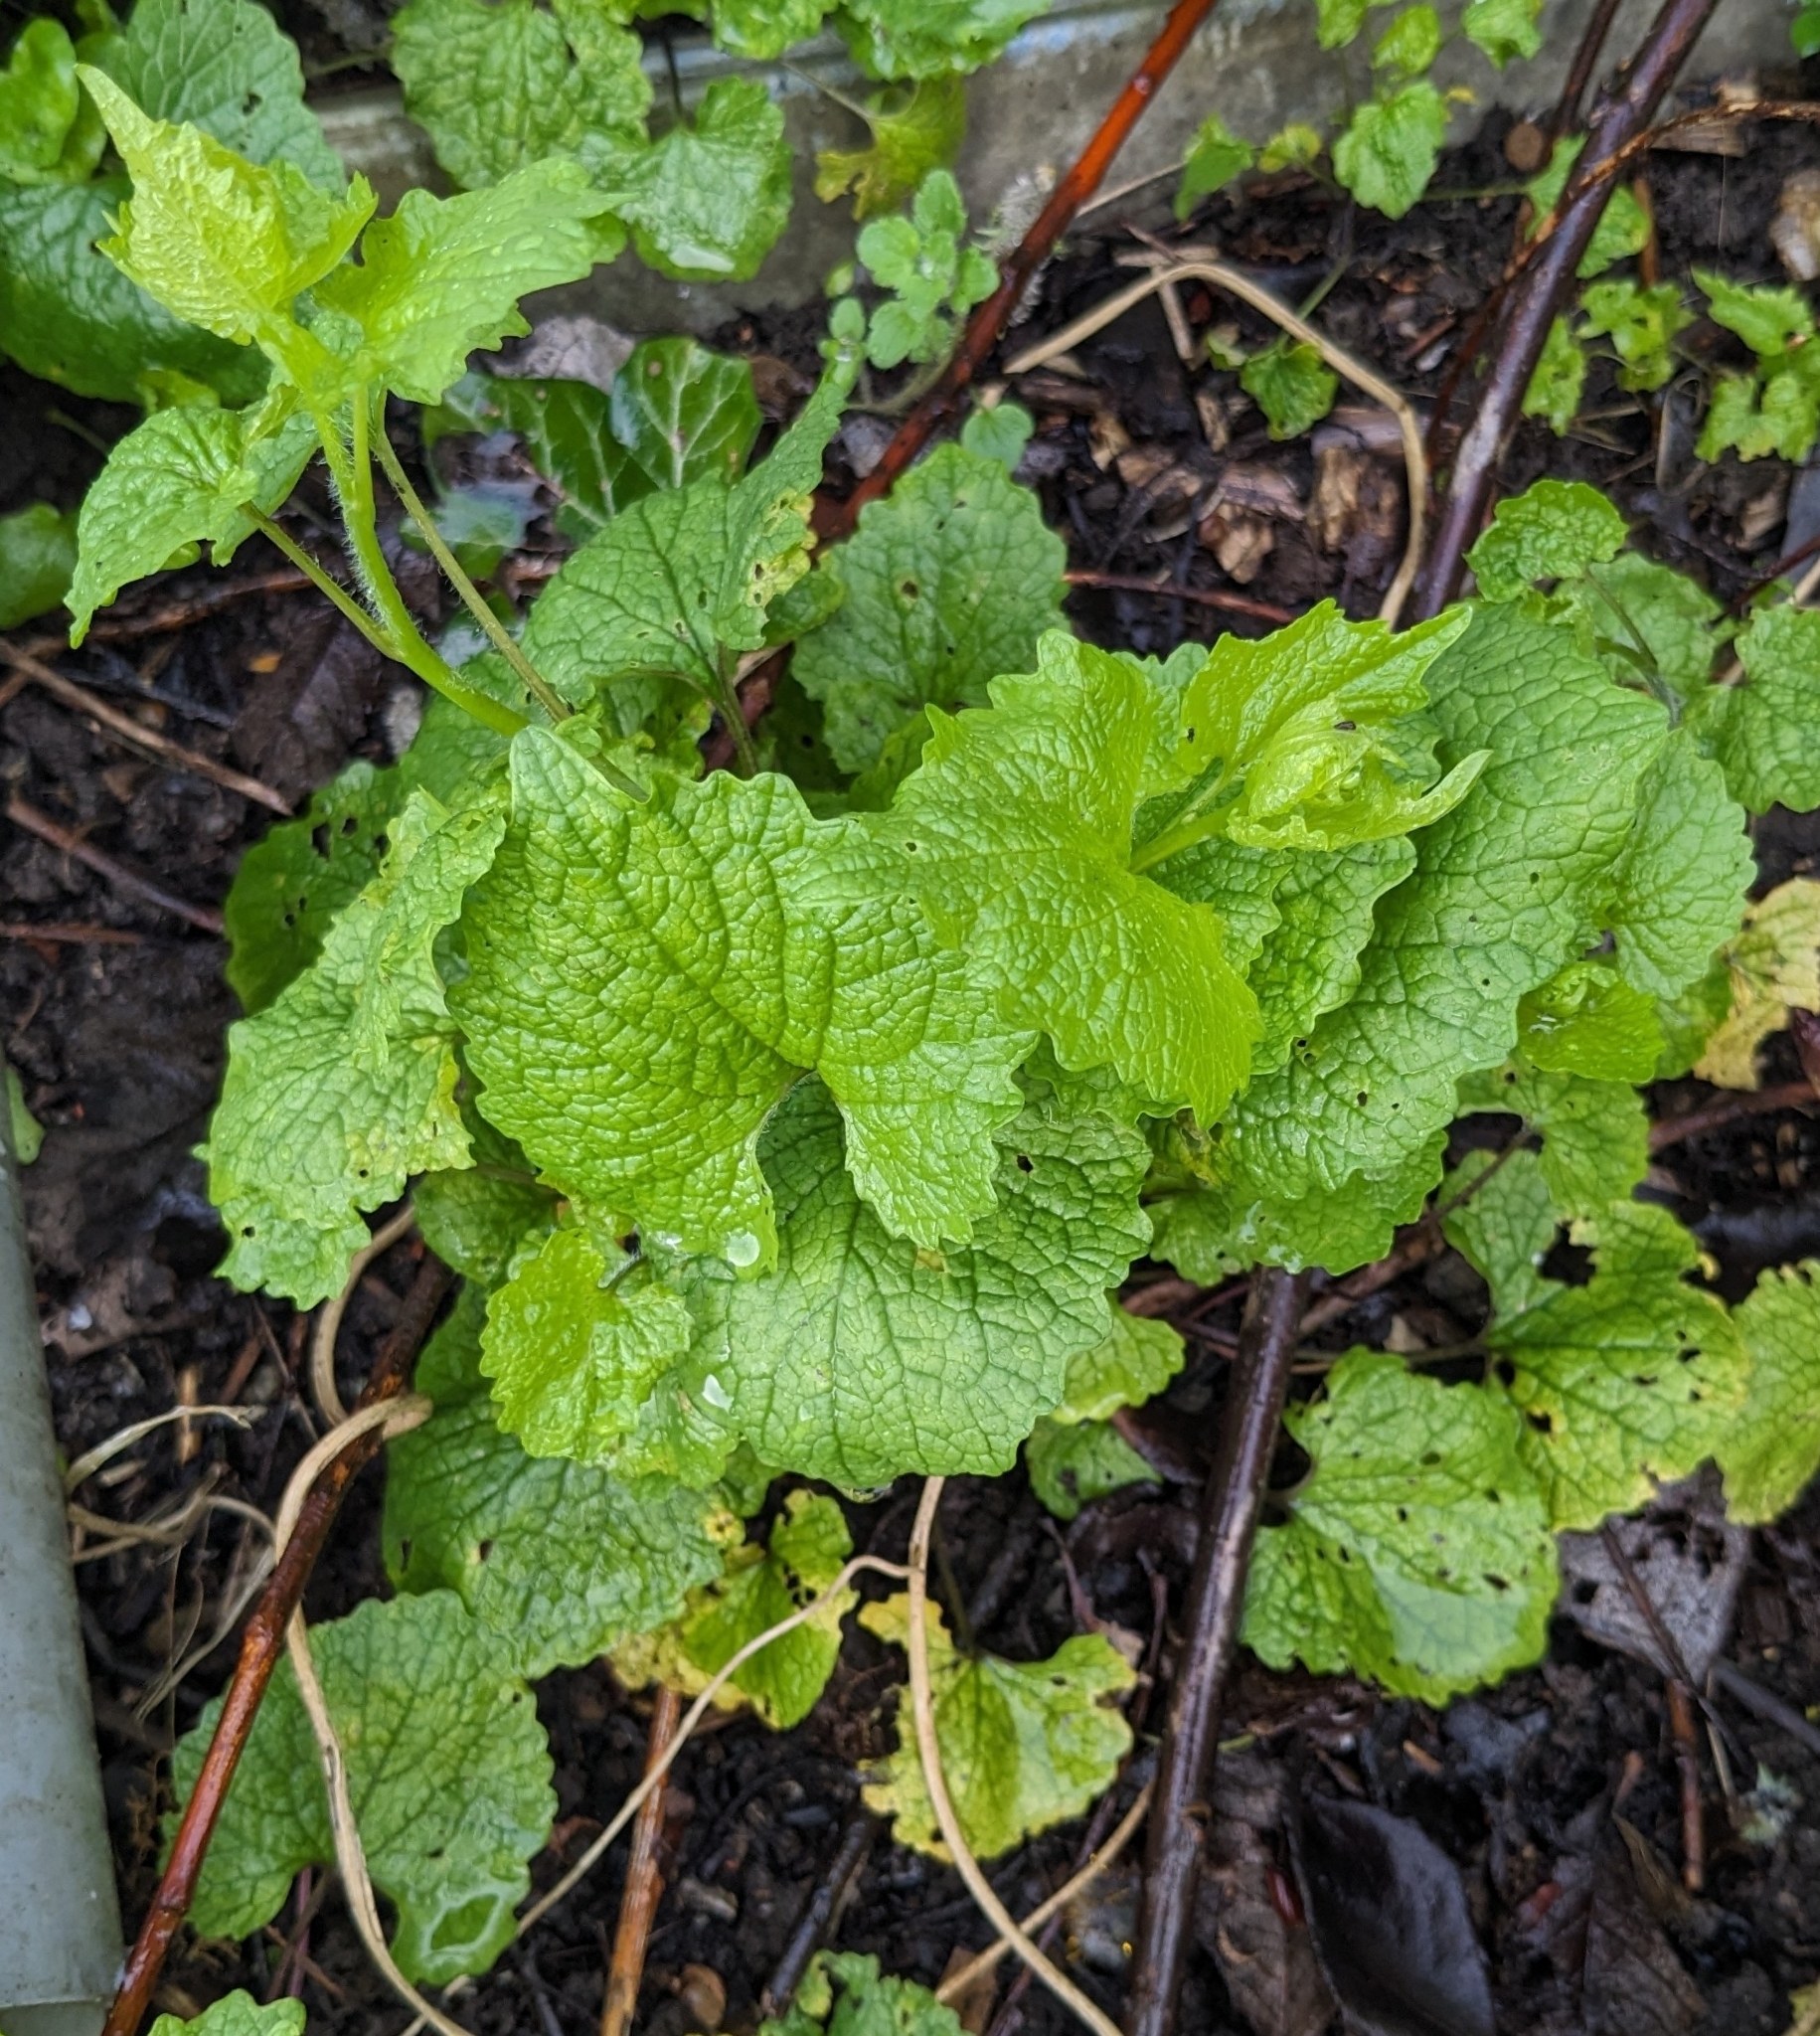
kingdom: Plantae
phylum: Tracheophyta
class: Magnoliopsida
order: Brassicales
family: Brassicaceae
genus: Alliaria
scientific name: Alliaria petiolata
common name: Garlic mustard
